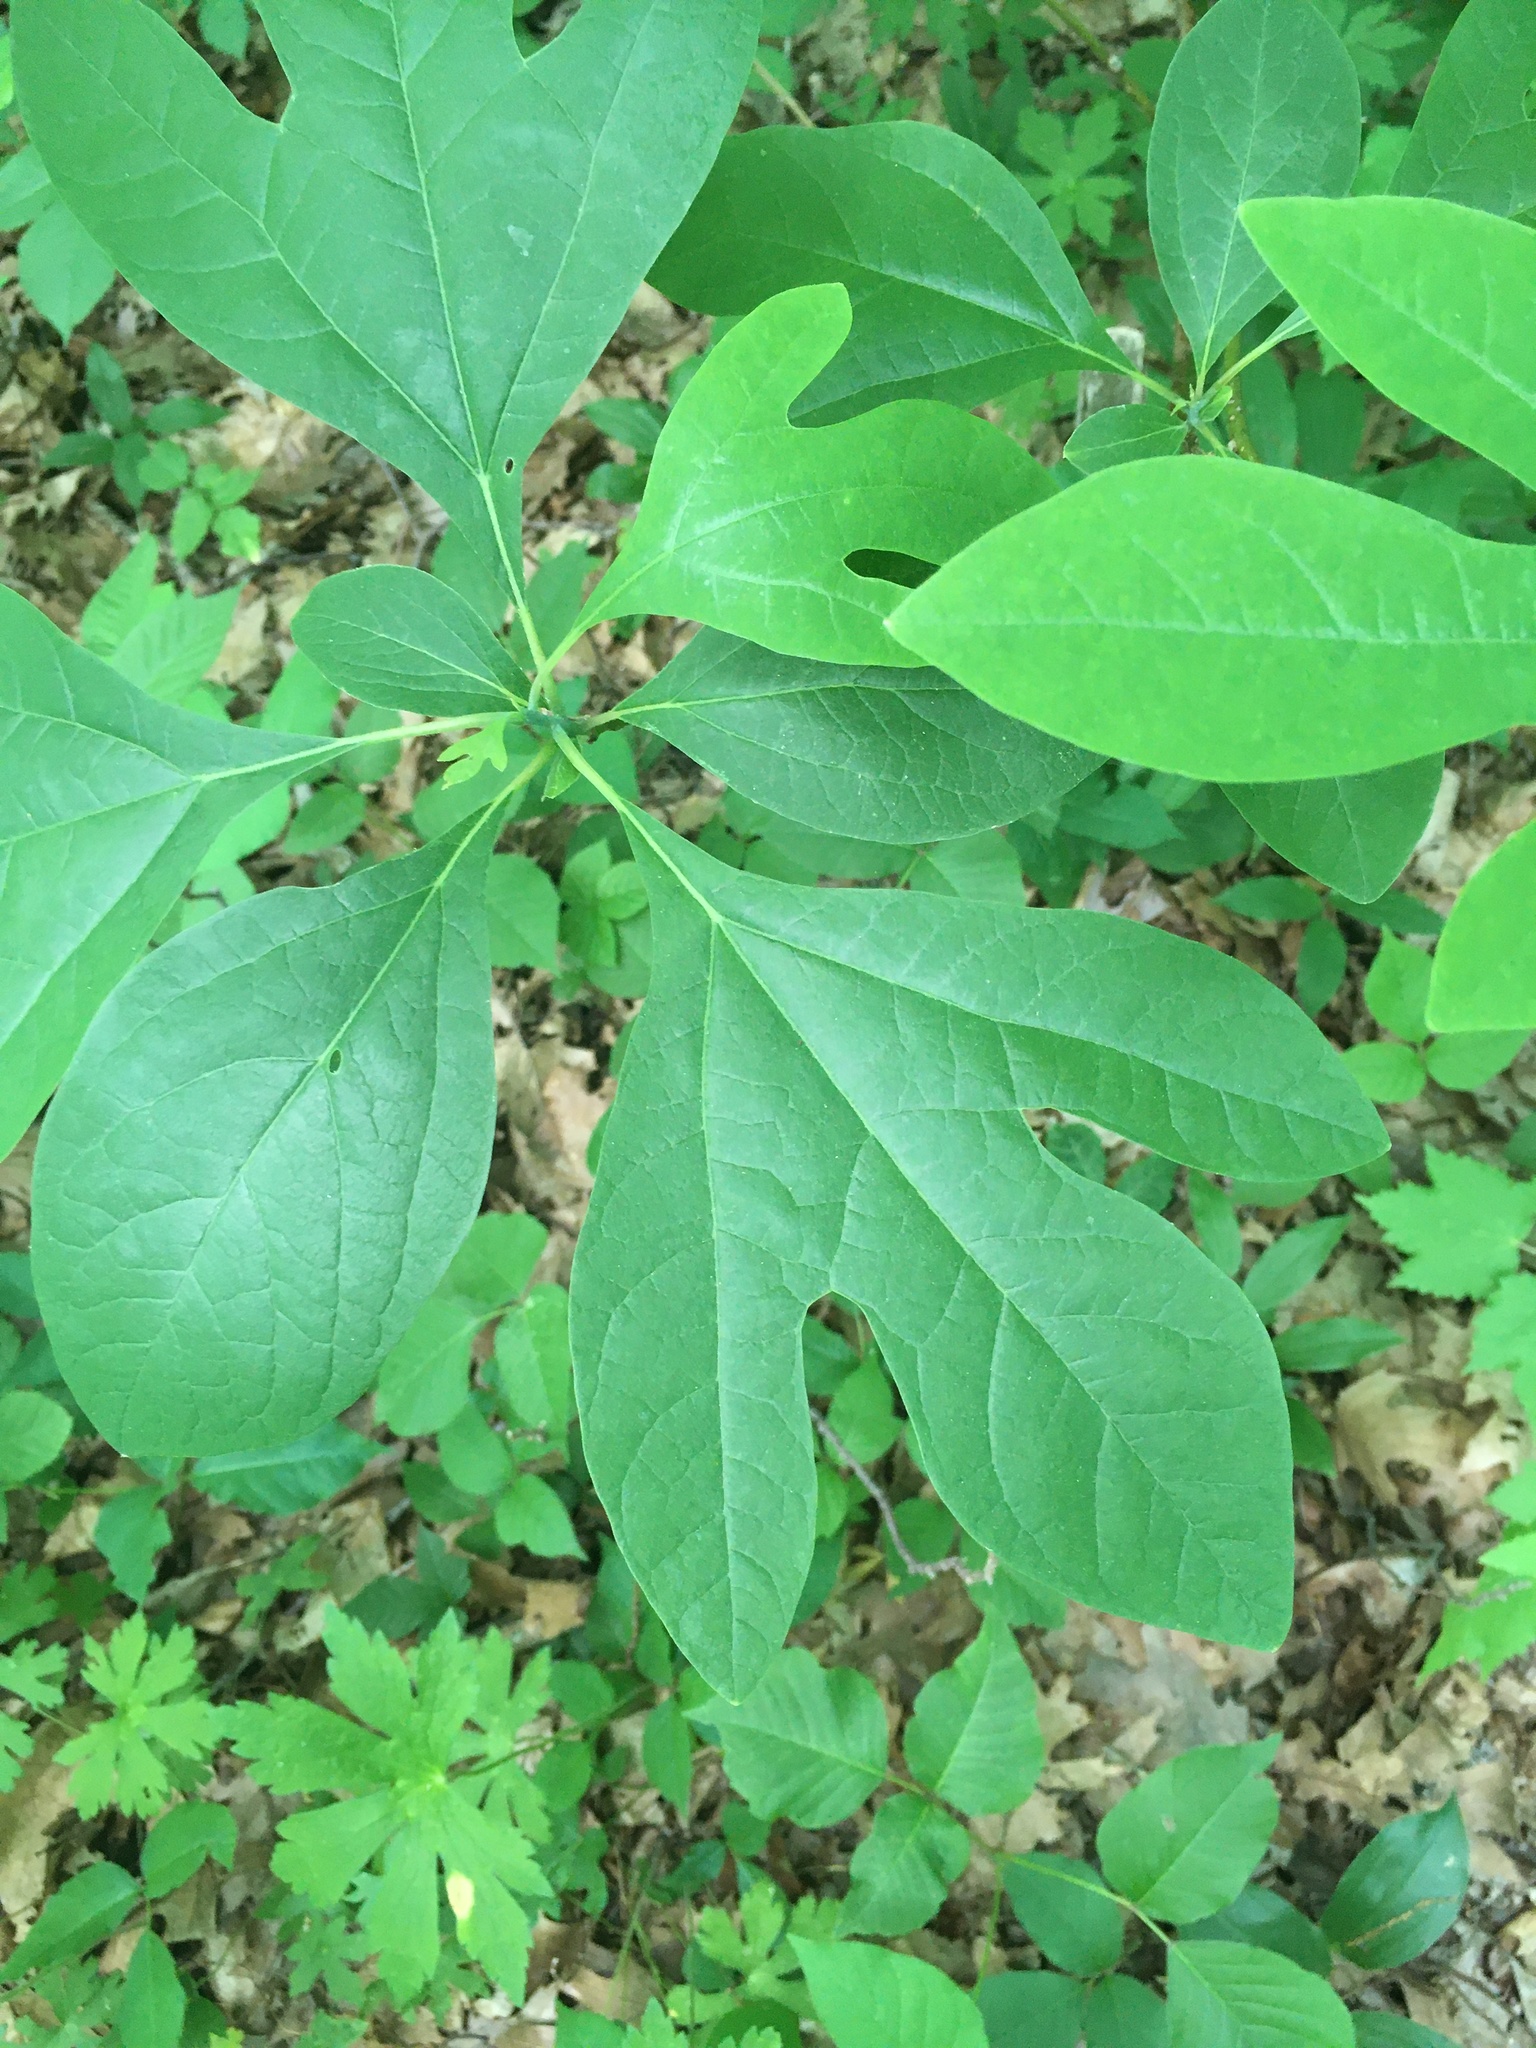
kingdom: Plantae
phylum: Tracheophyta
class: Magnoliopsida
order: Laurales
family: Lauraceae
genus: Sassafras
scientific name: Sassafras albidum
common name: Sassafras
